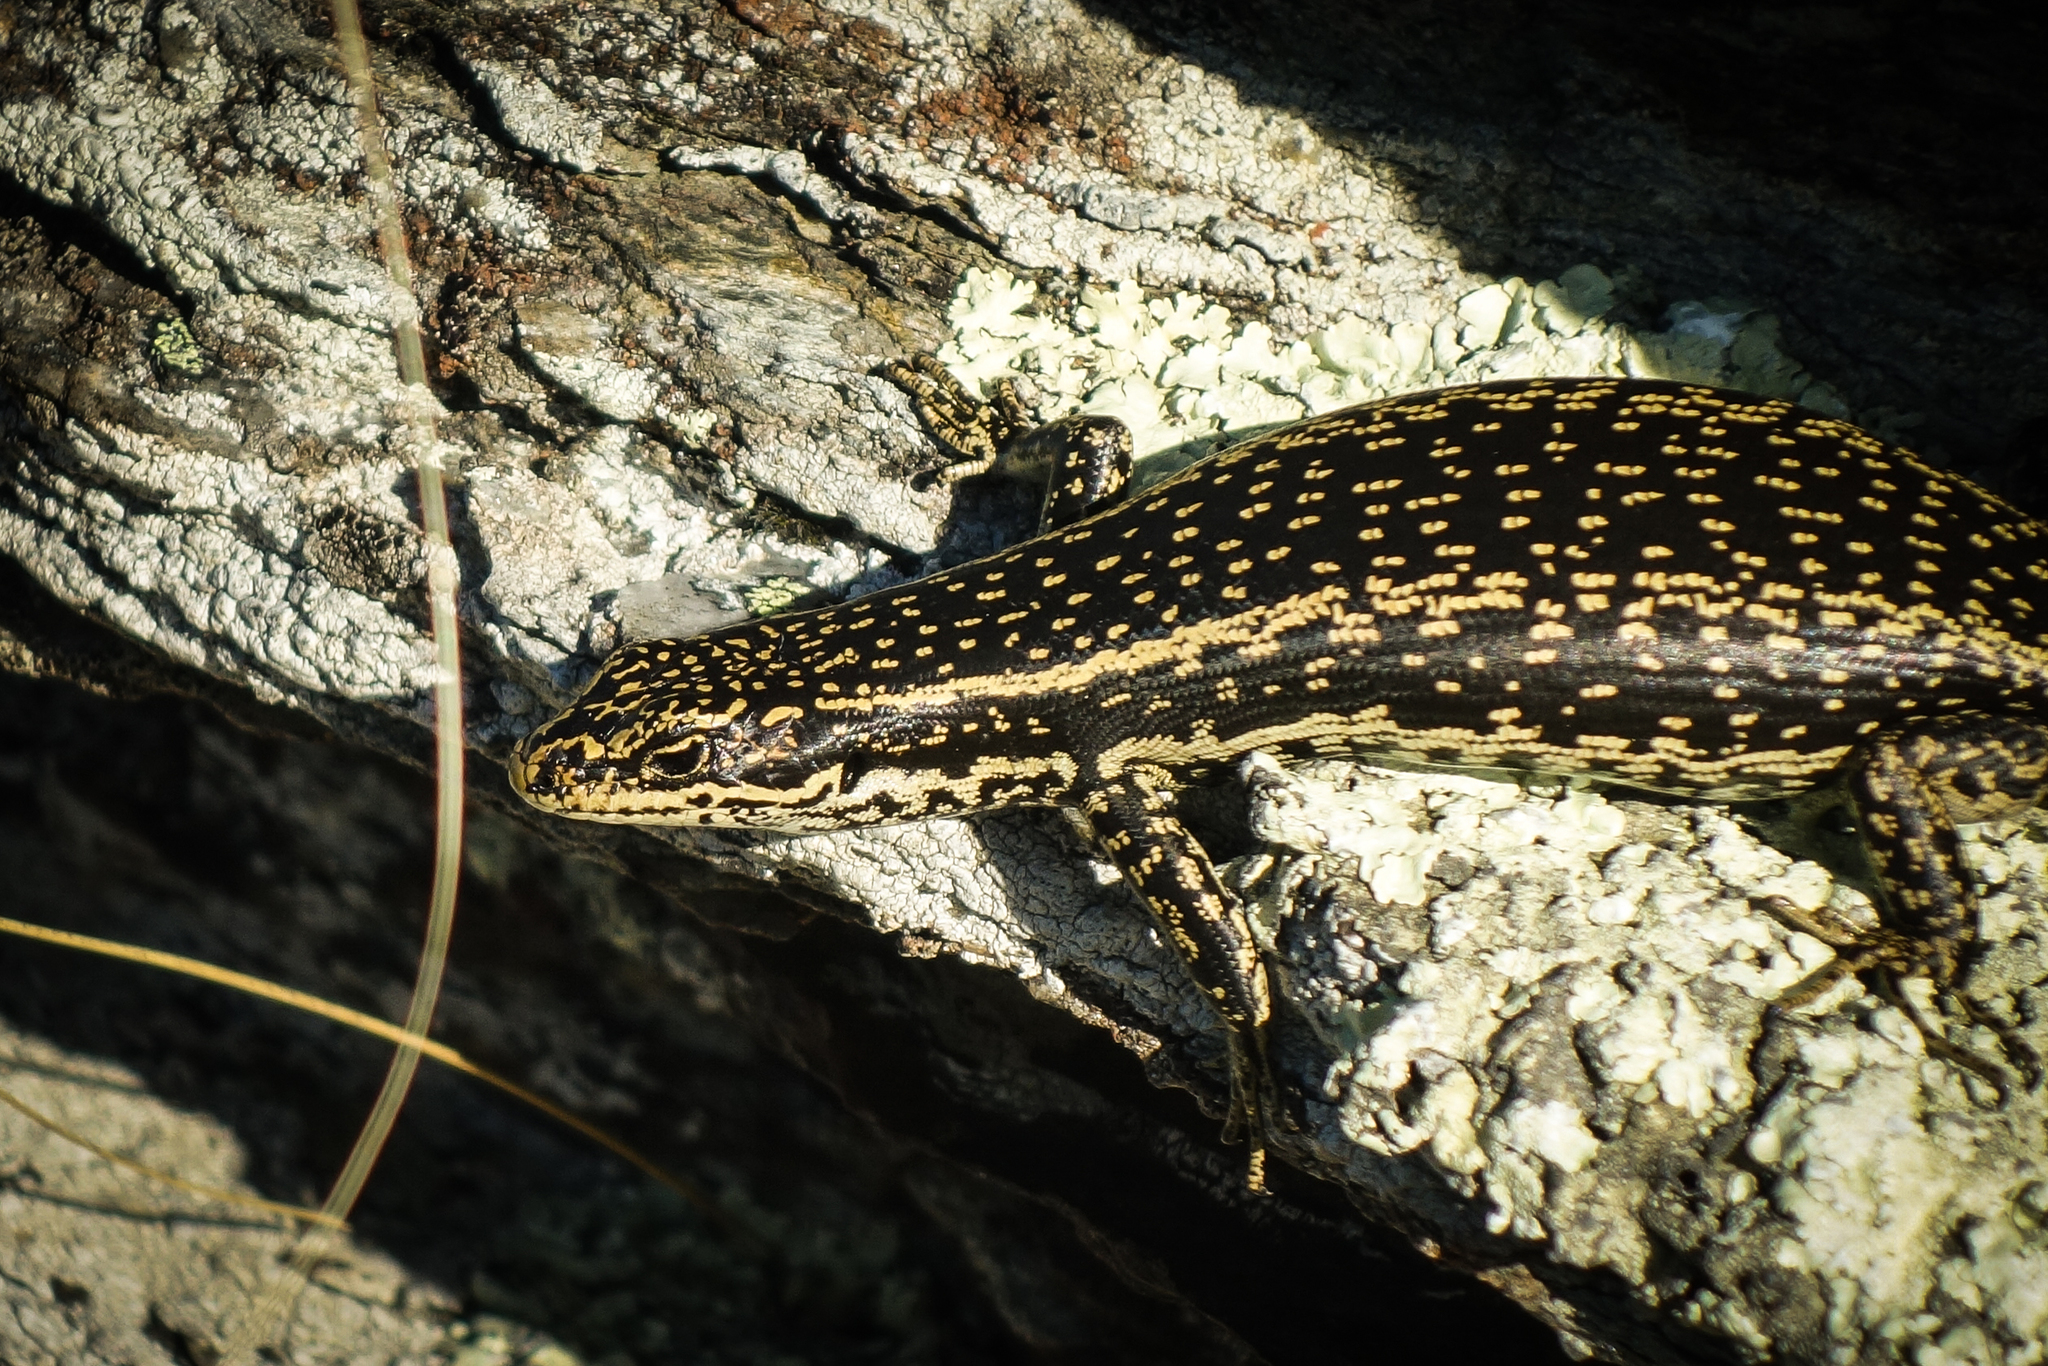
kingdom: Animalia
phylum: Chordata
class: Squamata
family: Scincidae
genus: Oligosoma
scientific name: Oligosoma grande
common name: Grand skink
